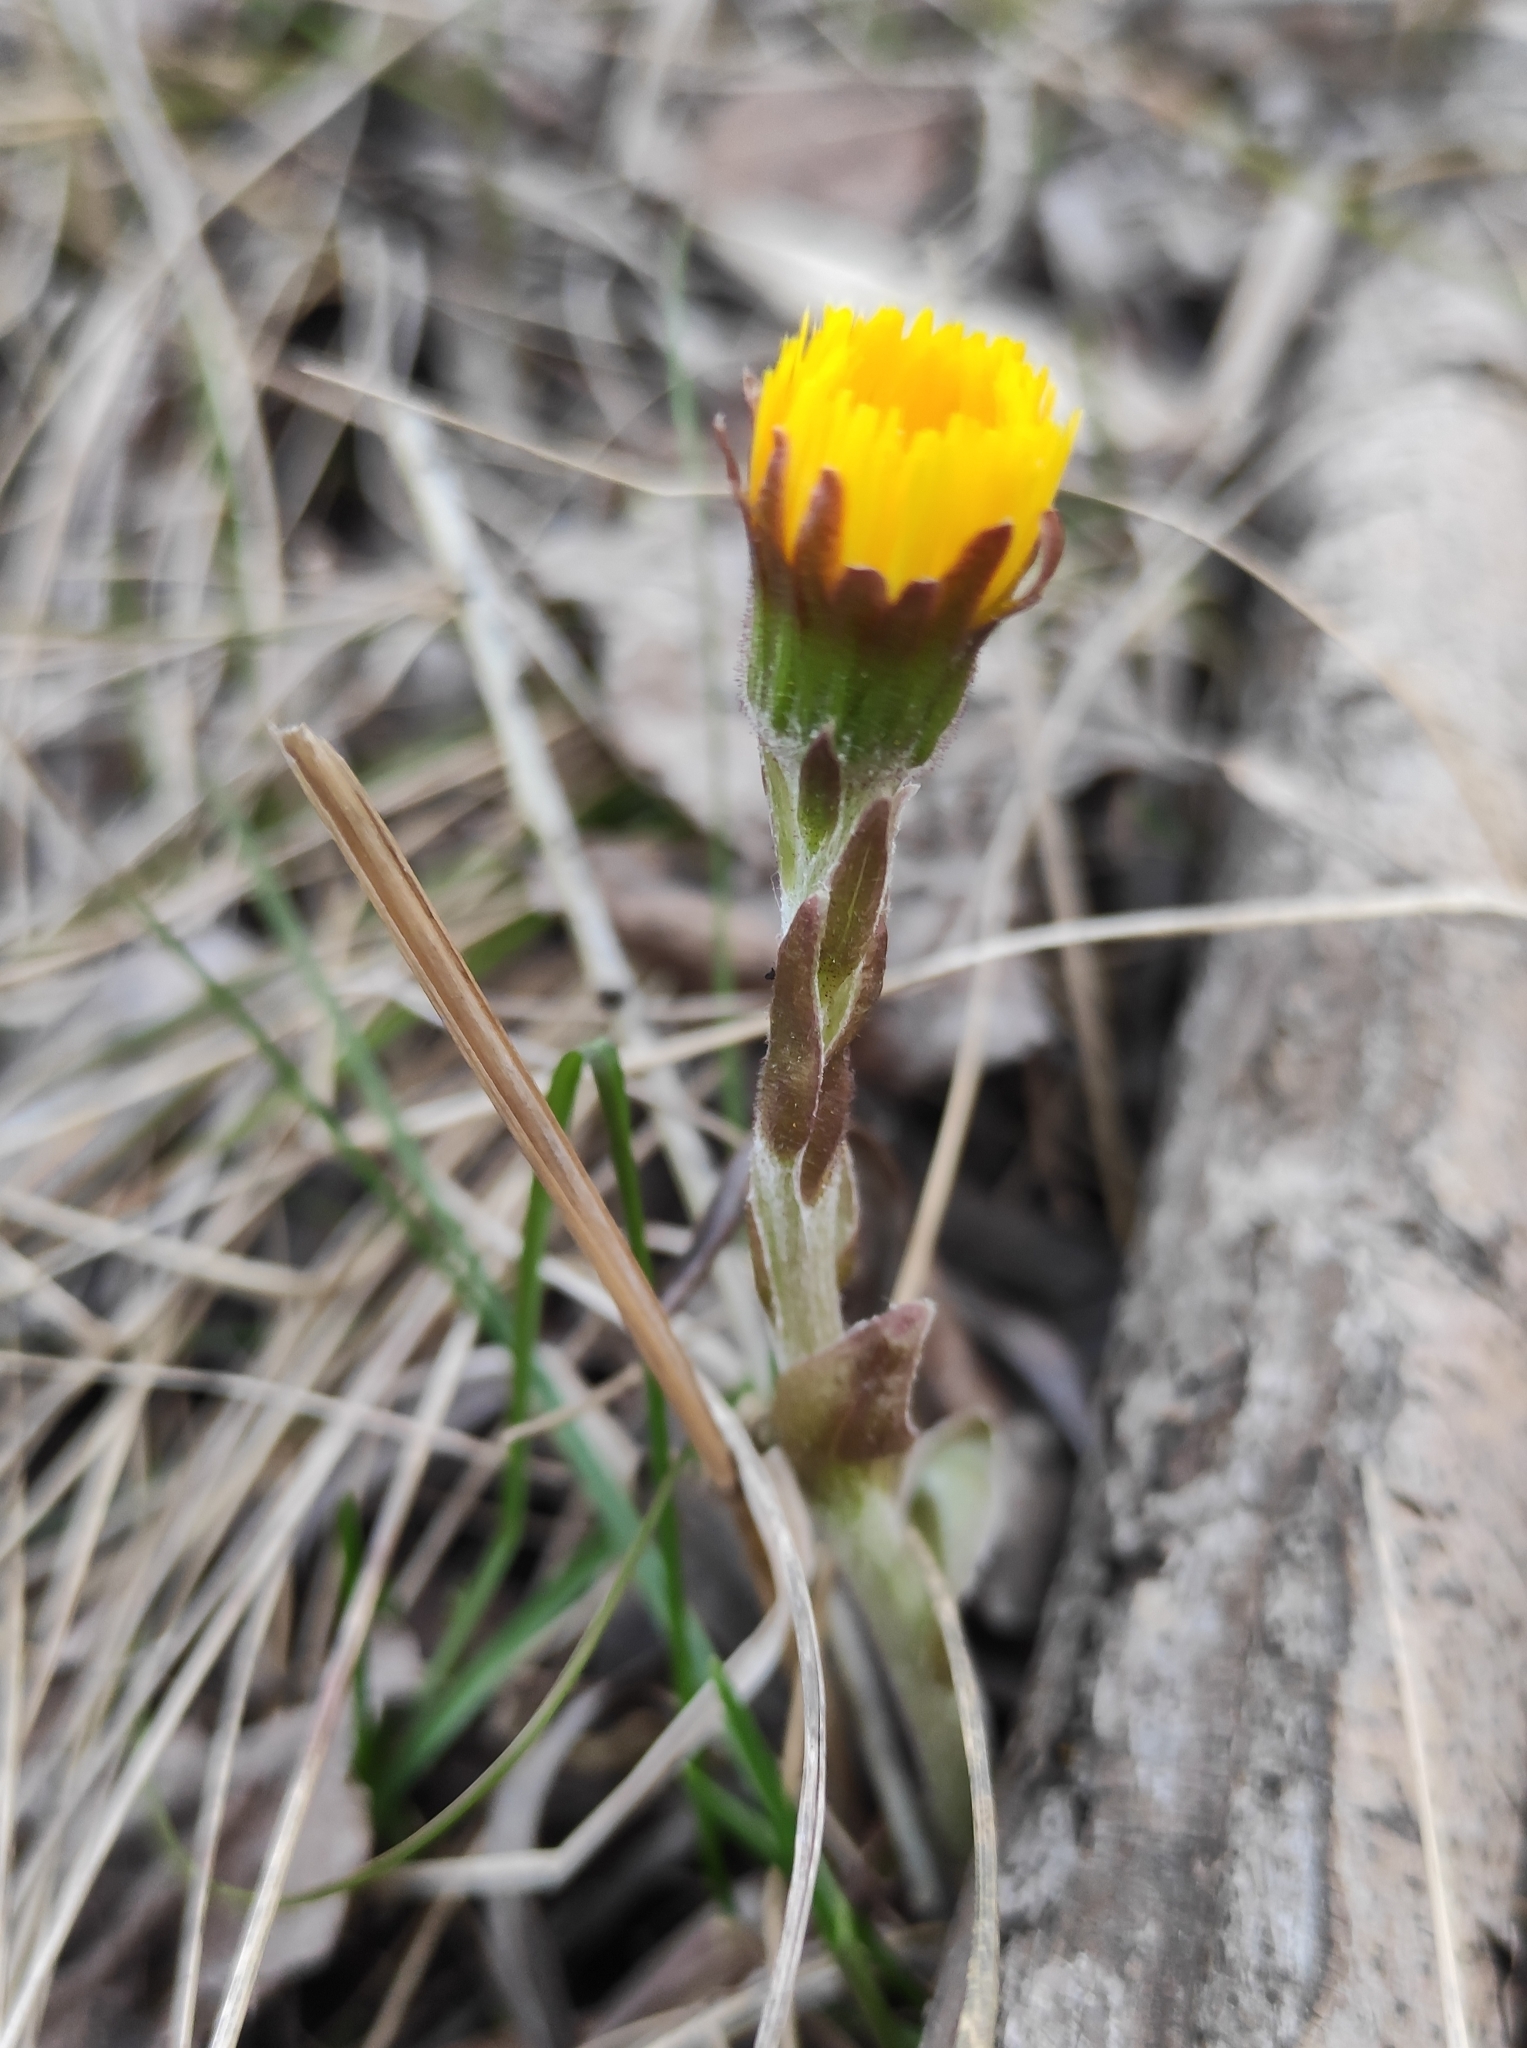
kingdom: Plantae
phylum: Tracheophyta
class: Magnoliopsida
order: Asterales
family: Asteraceae
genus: Tussilago
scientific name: Tussilago farfara
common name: Coltsfoot
